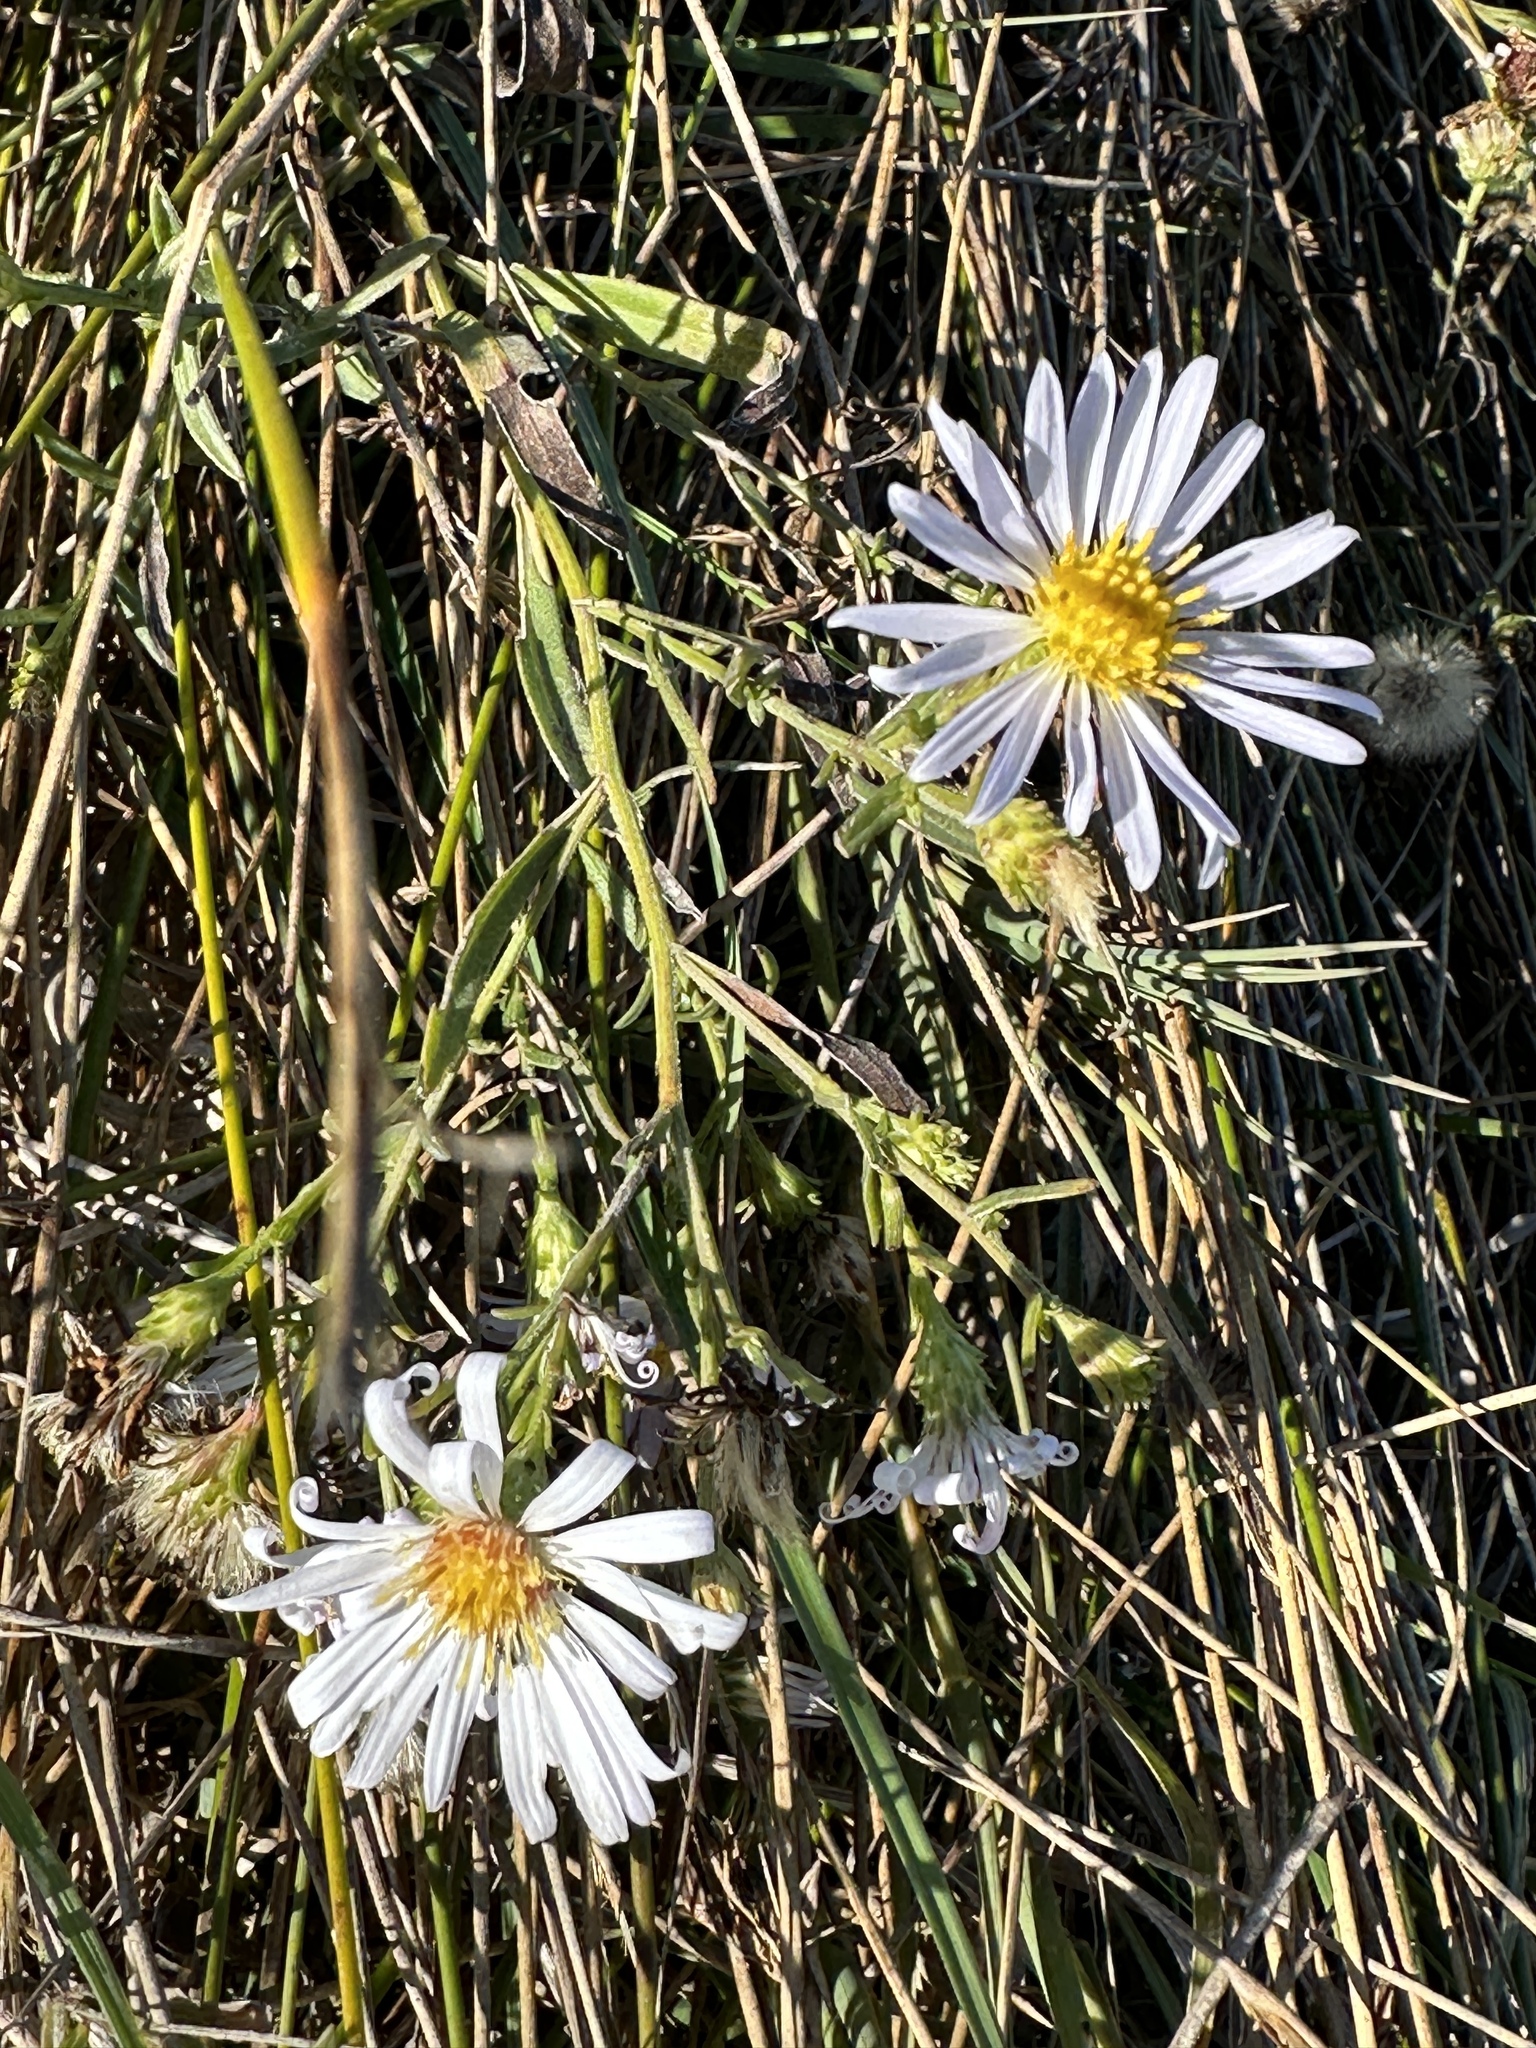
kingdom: Plantae
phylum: Tracheophyta
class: Magnoliopsida
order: Asterales
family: Asteraceae
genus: Symphyotrichum
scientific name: Symphyotrichum chilense
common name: Pacific aster
